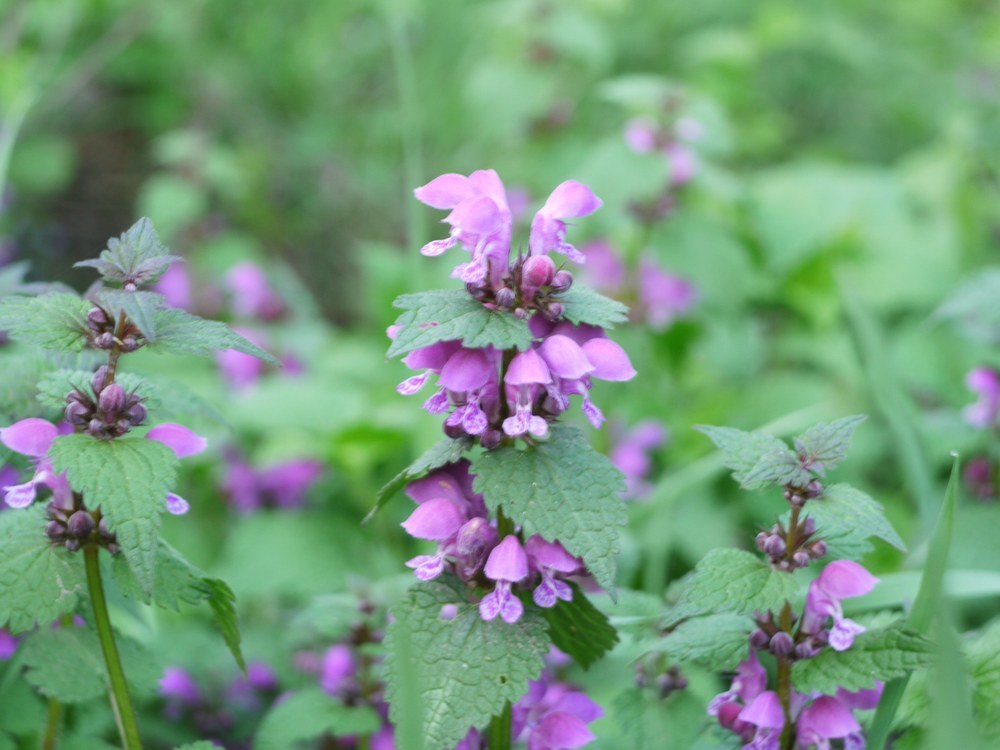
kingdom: Plantae
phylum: Tracheophyta
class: Magnoliopsida
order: Lamiales
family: Lamiaceae
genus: Lamium
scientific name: Lamium maculatum
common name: Spotted dead-nettle
